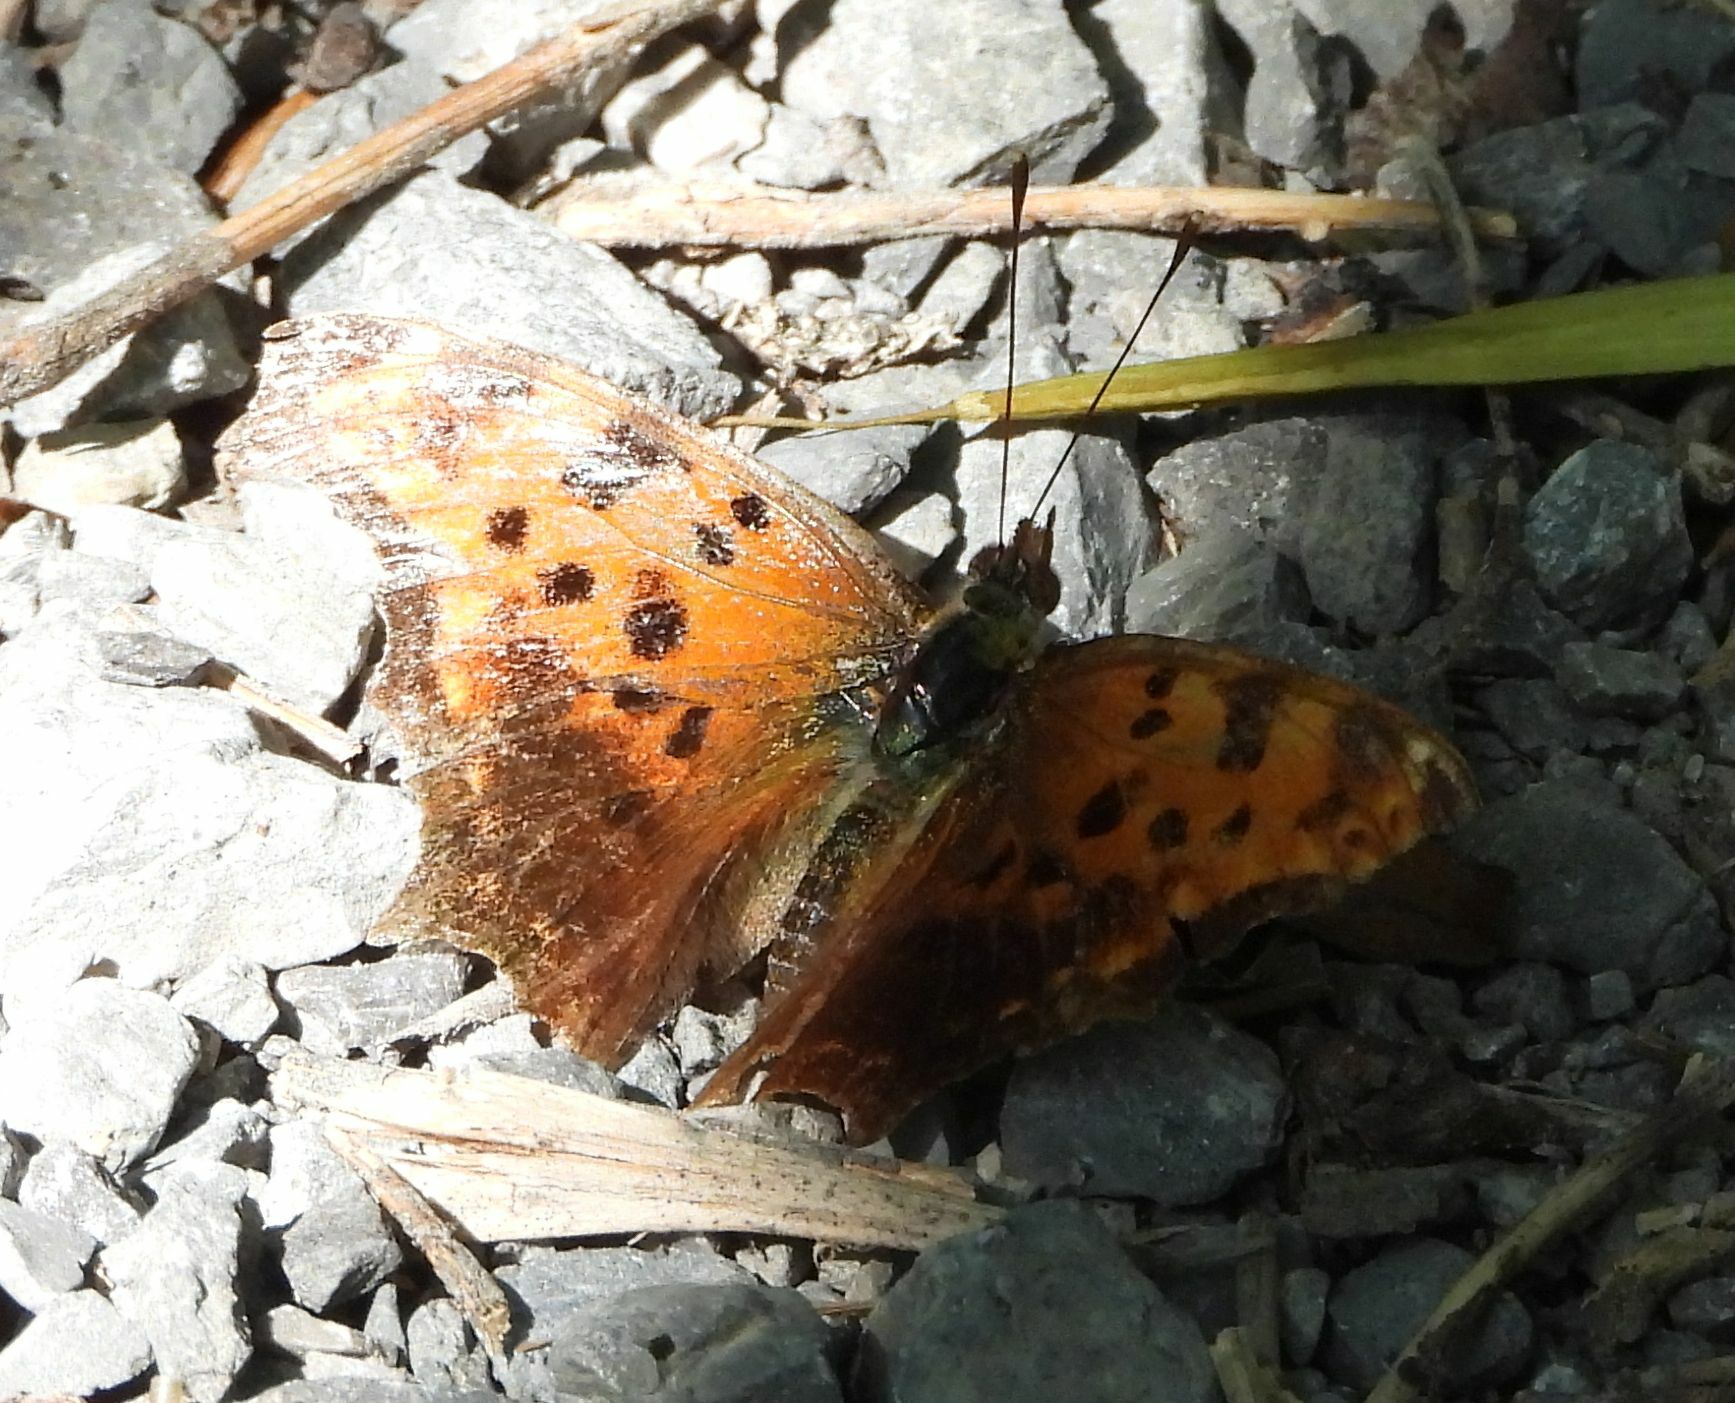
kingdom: Animalia
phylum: Arthropoda
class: Insecta
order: Lepidoptera
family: Nymphalidae
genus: Polygonia
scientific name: Polygonia comma
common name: Eastern comma
